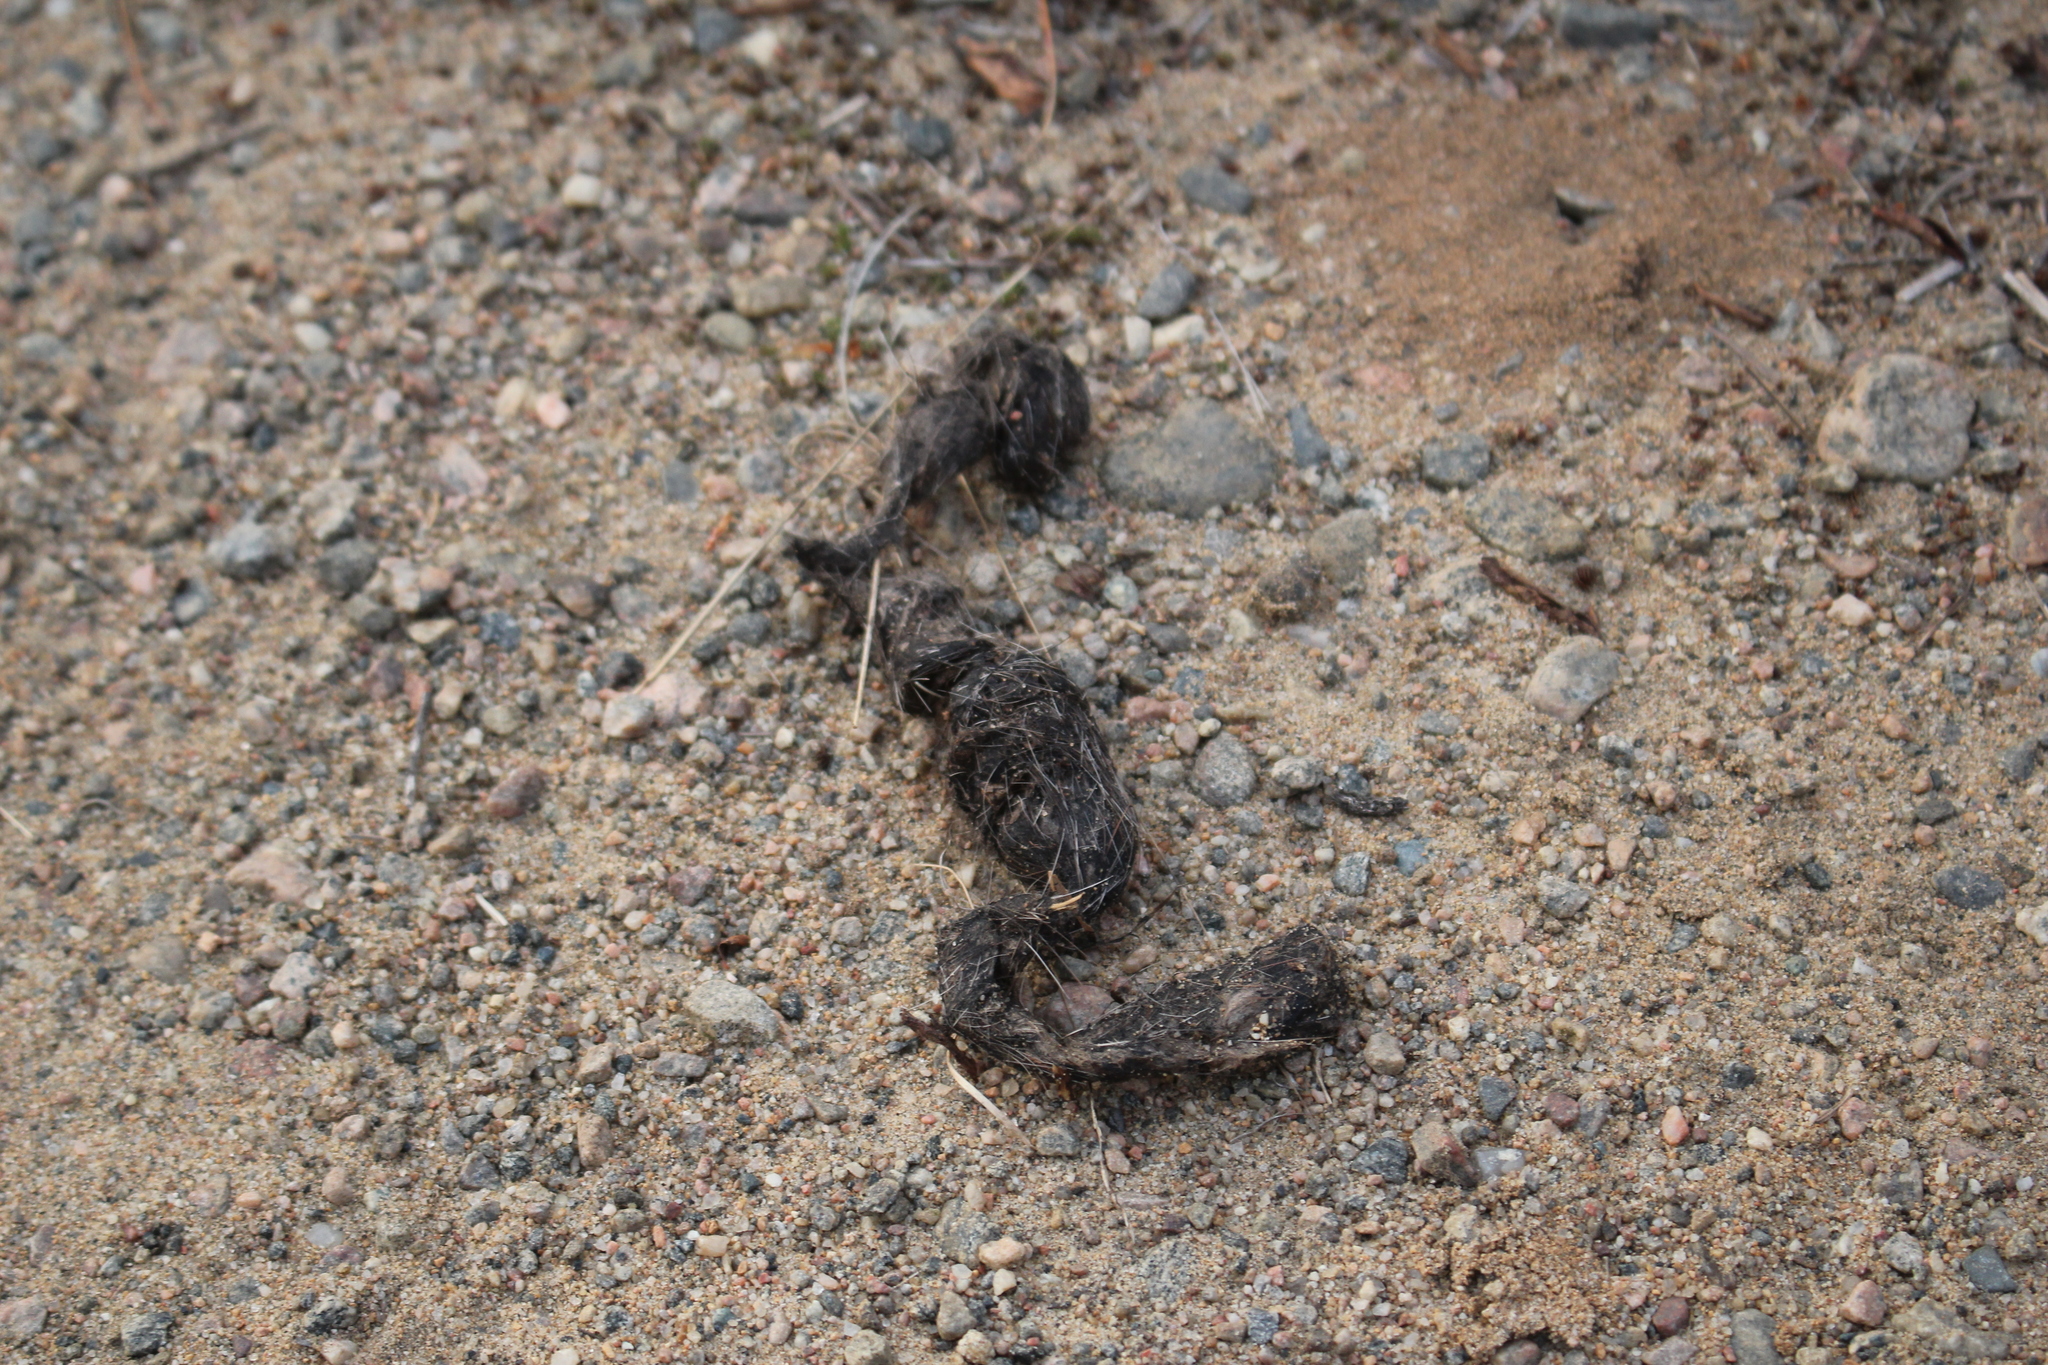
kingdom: Animalia
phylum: Chordata
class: Mammalia
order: Carnivora
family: Canidae
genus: Canis
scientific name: Canis lycaon
